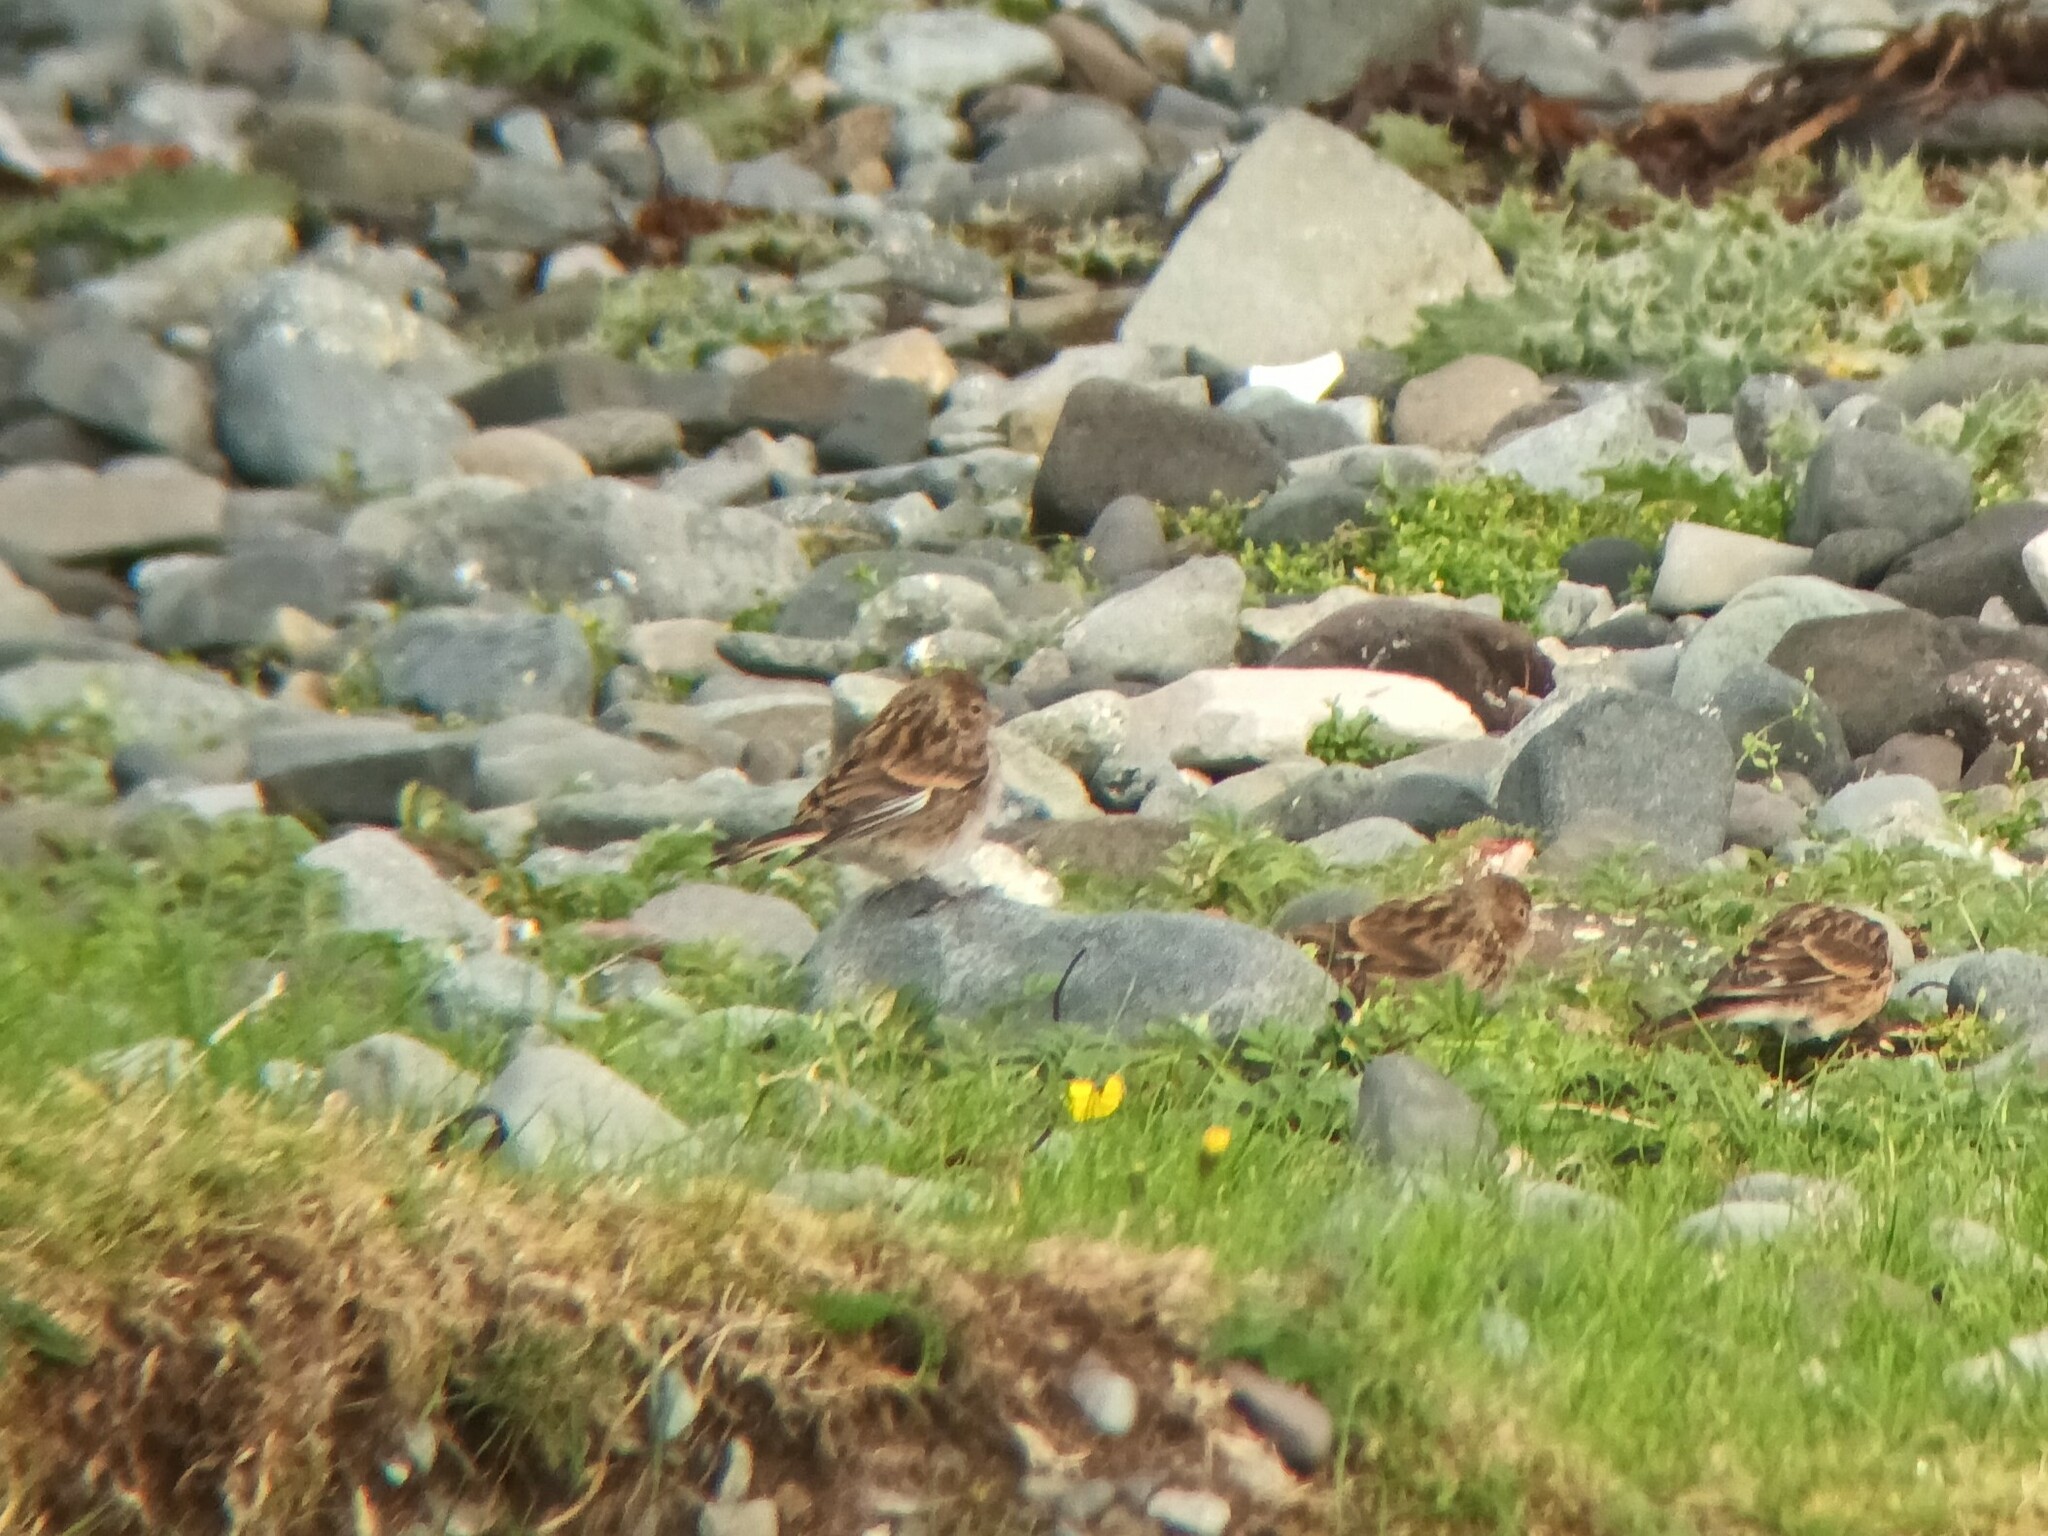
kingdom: Animalia
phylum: Chordata
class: Aves
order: Passeriformes
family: Fringillidae
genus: Linaria
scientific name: Linaria flavirostris
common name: Twite
